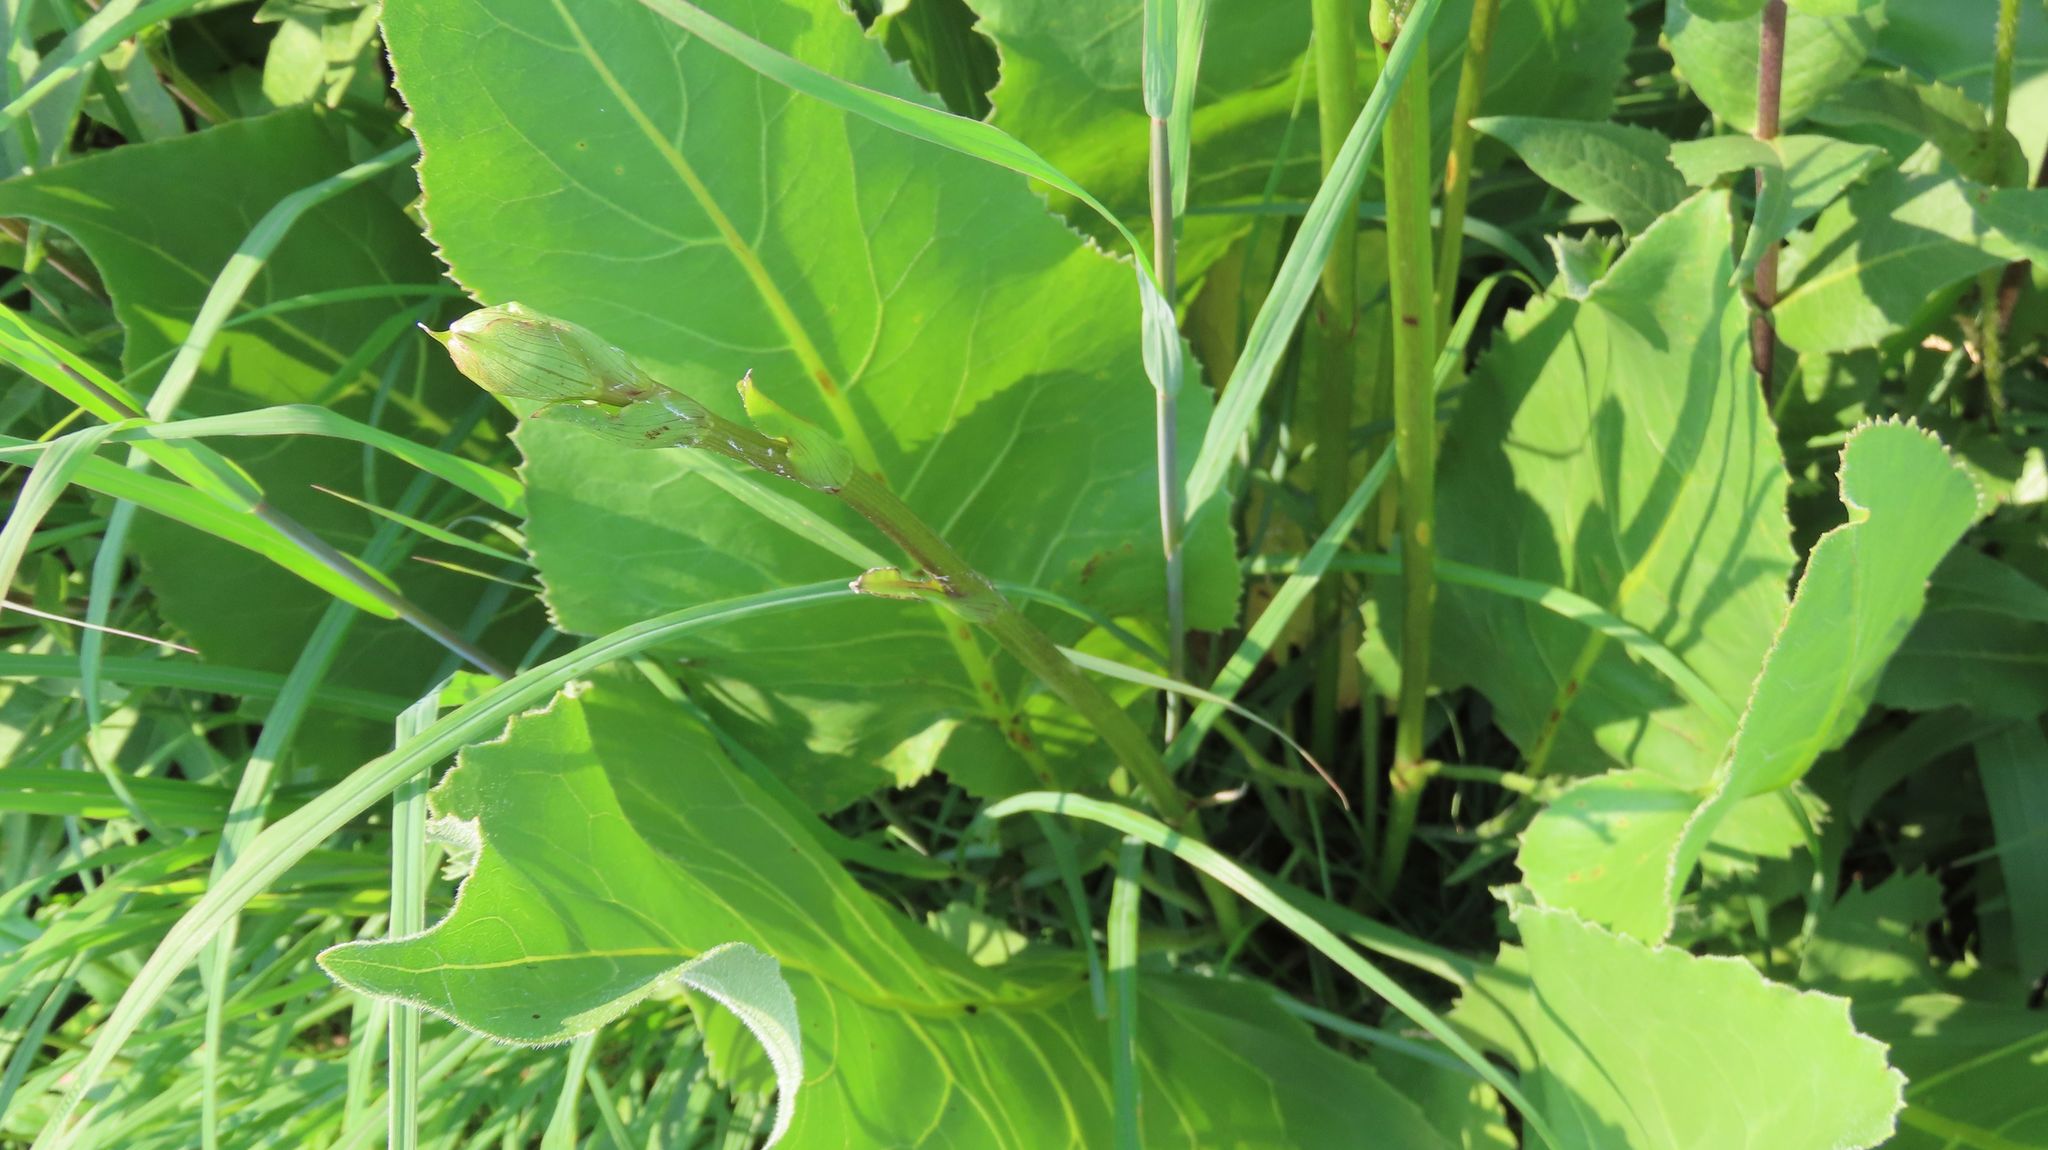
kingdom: Plantae
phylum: Tracheophyta
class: Magnoliopsida
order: Asterales
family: Asteraceae
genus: Silphium
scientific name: Silphium terebinthinaceum
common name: Basal-leaf rosinweed
